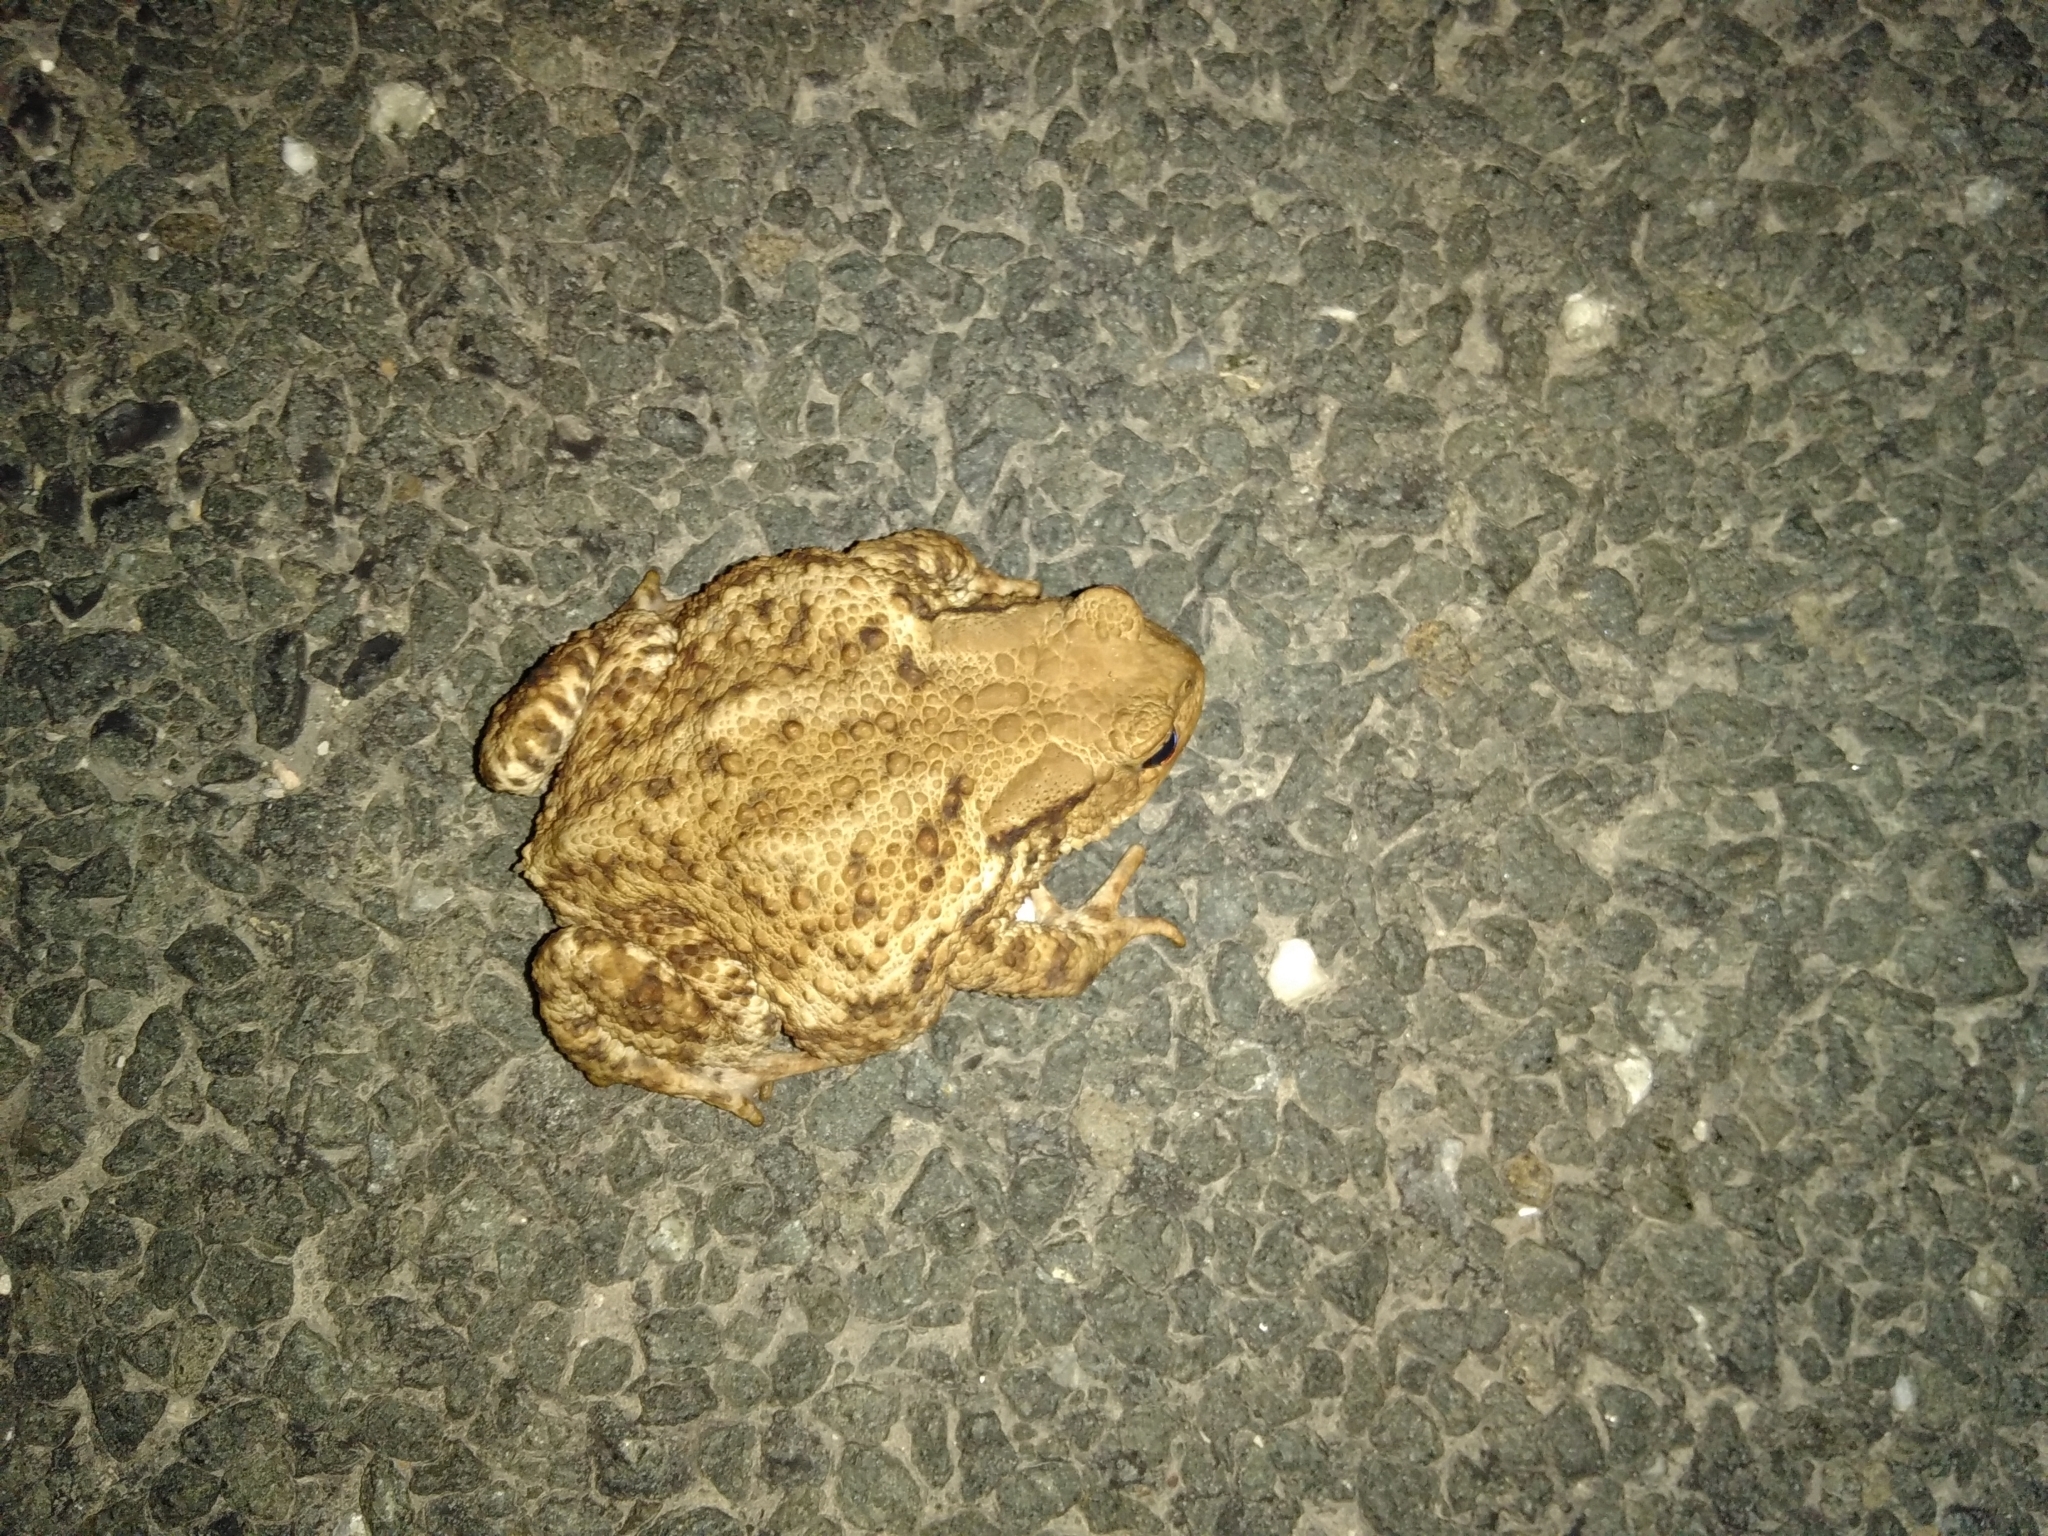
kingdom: Animalia
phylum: Chordata
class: Amphibia
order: Anura
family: Bufonidae
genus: Bufo
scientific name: Bufo bufo
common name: Common toad
